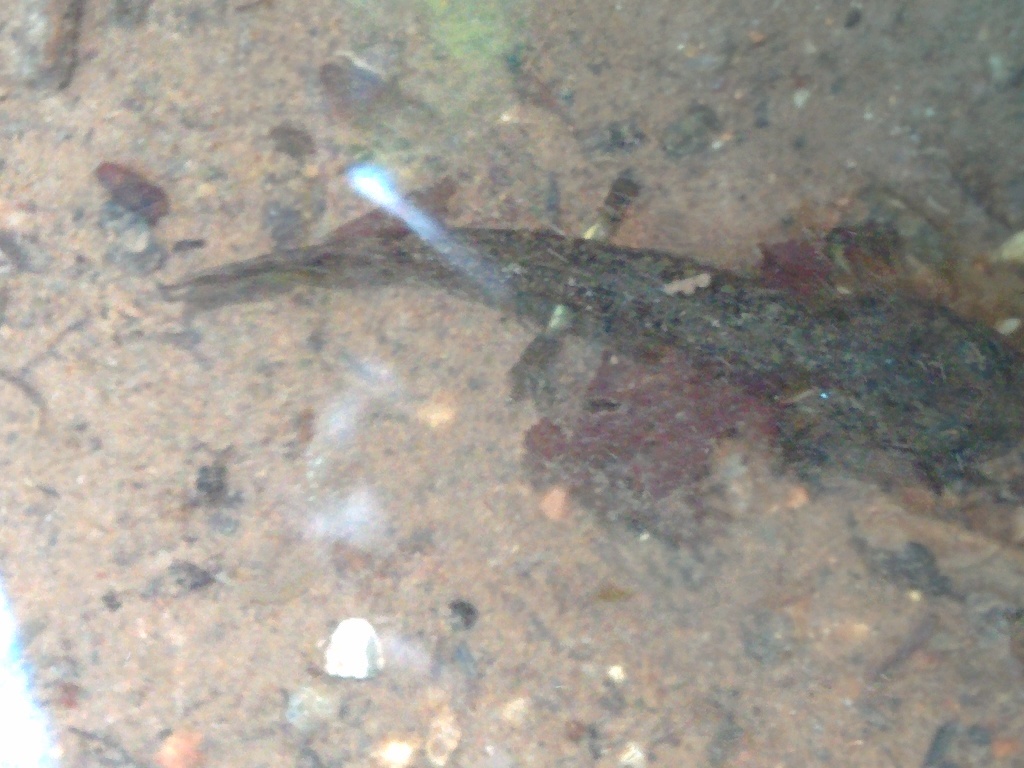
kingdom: Animalia
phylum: Chordata
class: Amphibia
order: Caudata
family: Salamandridae
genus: Salamandra
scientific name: Salamandra salamandra
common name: Fire salamander
